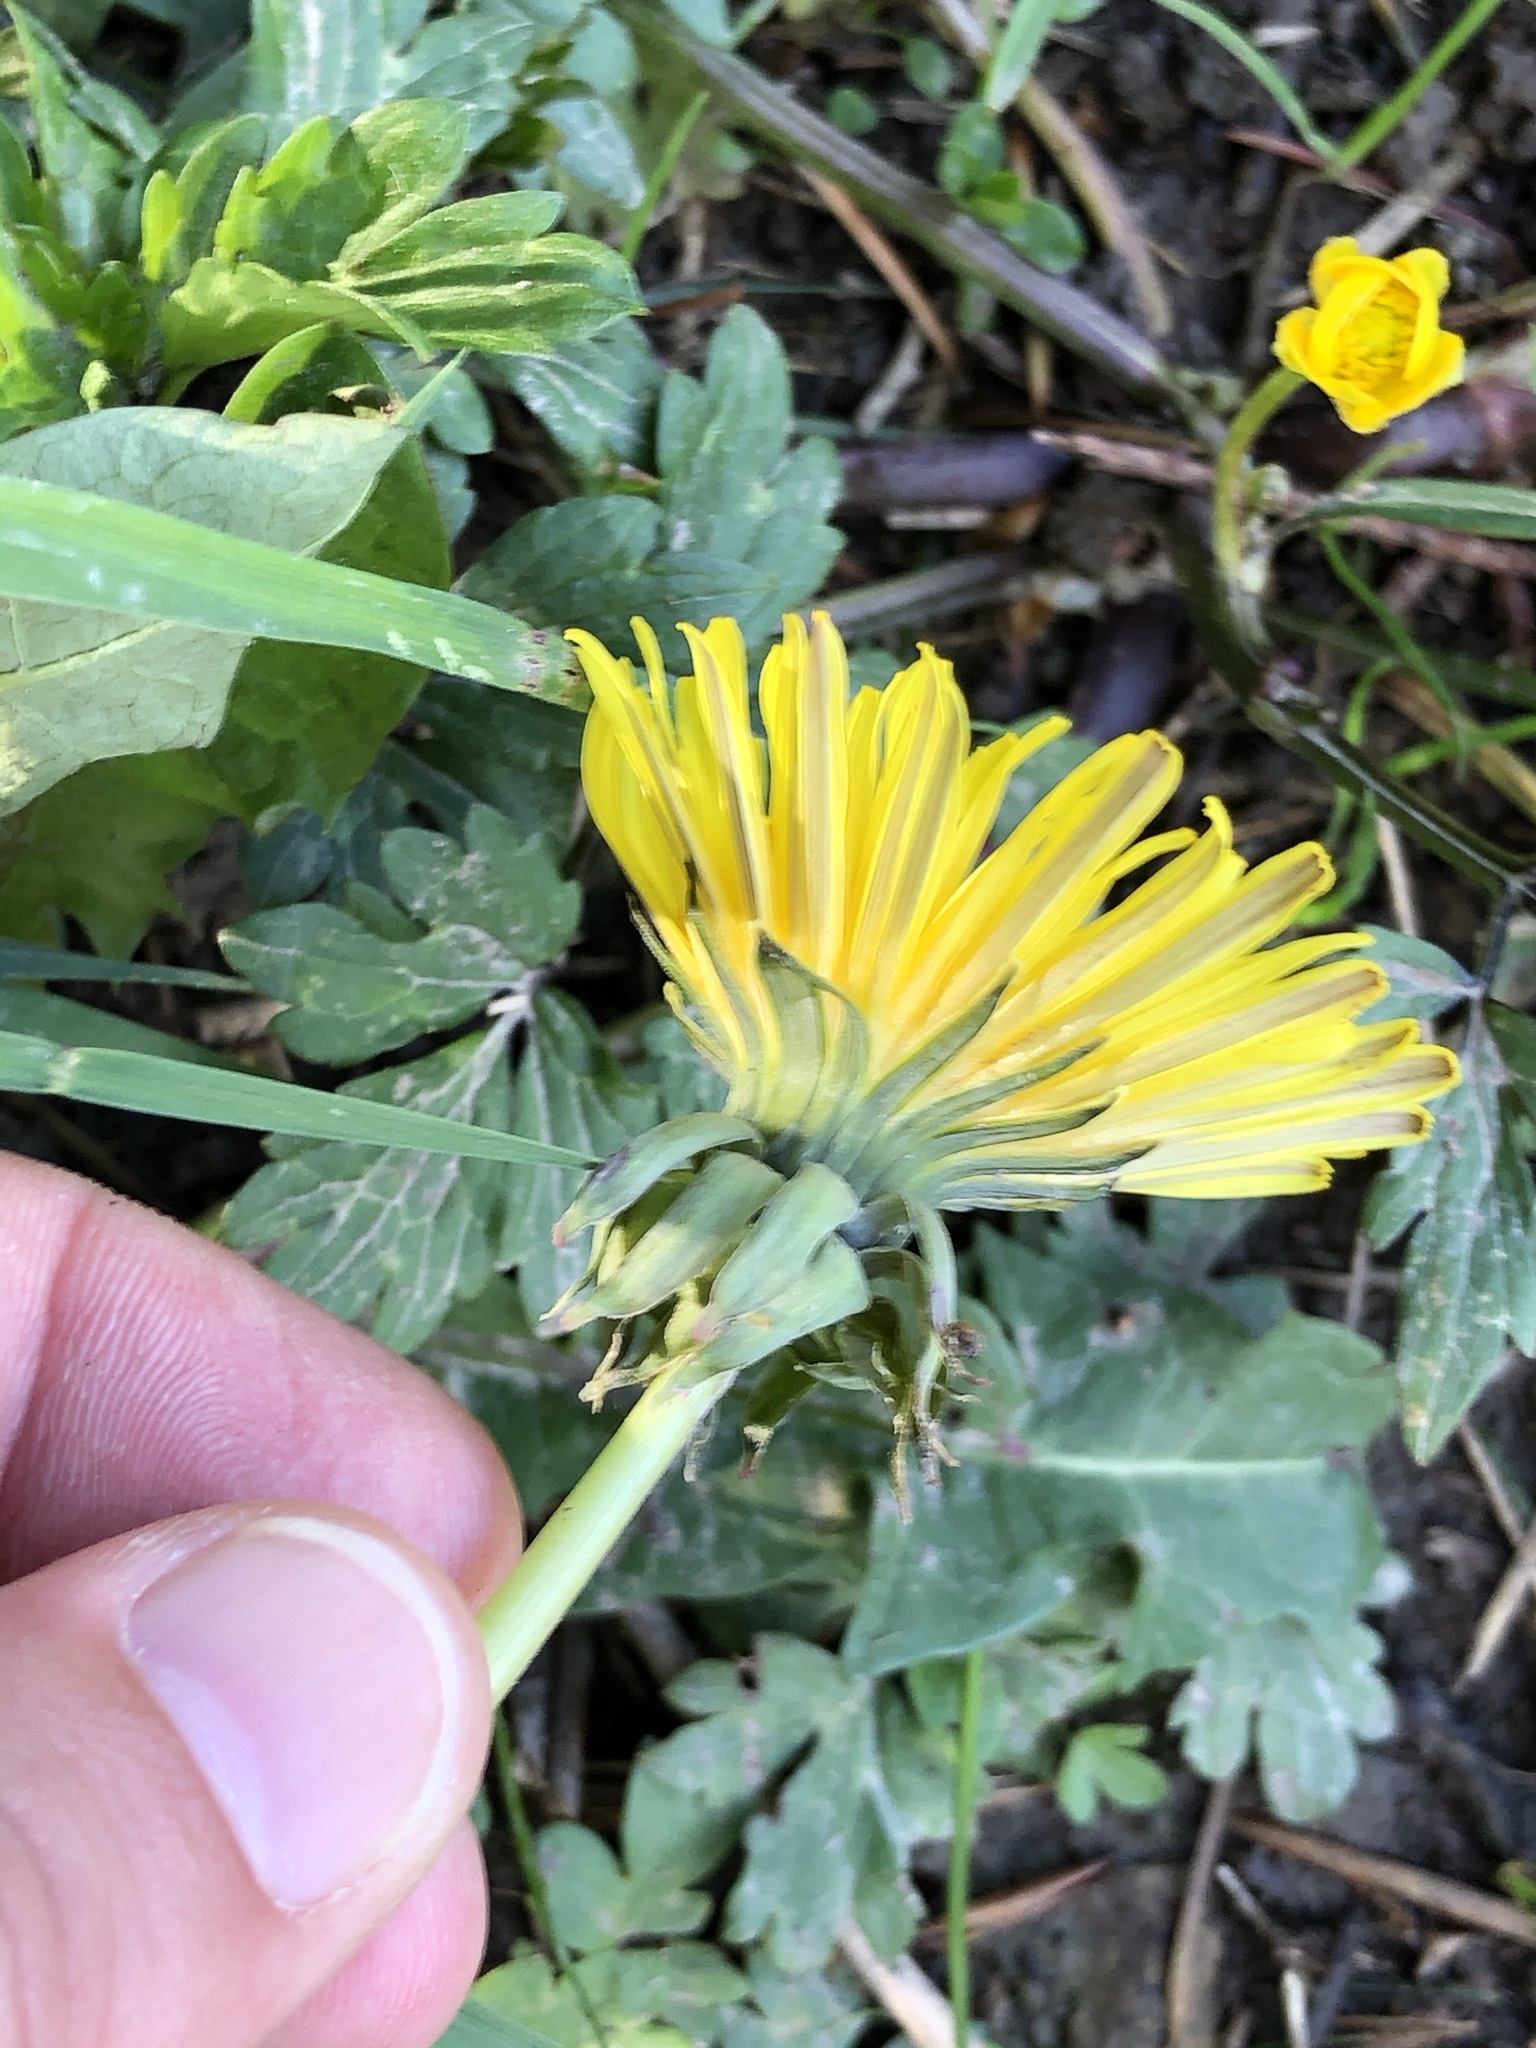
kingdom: Plantae
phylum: Tracheophyta
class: Magnoliopsida
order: Asterales
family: Asteraceae
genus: Taraxacum
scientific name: Taraxacum officinale
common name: Common dandelion
